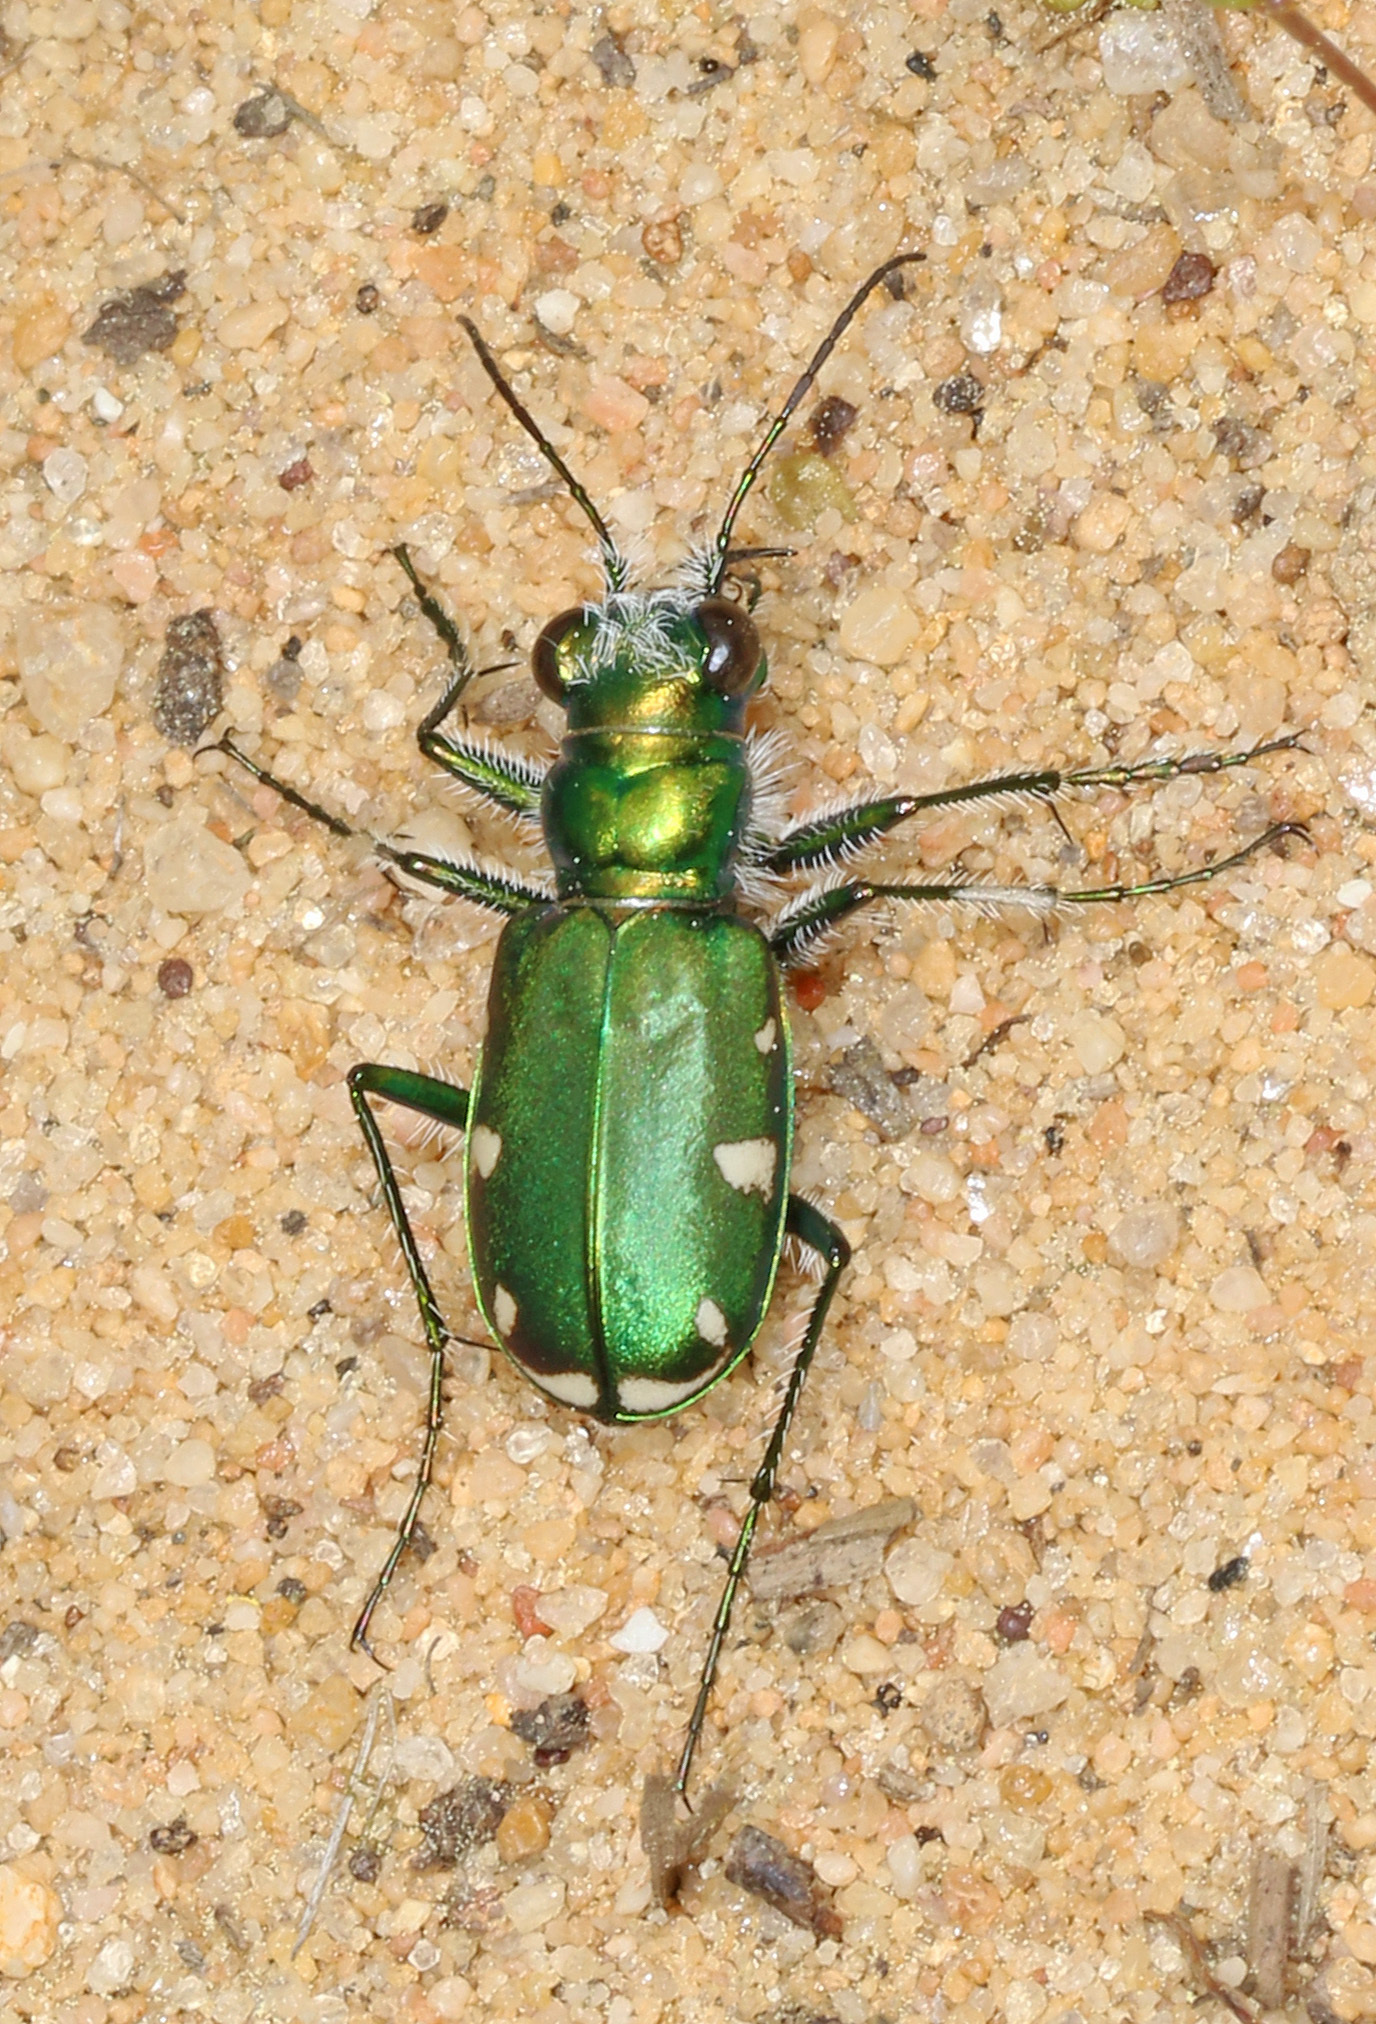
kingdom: Animalia
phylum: Arthropoda
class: Insecta
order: Coleoptera
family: Carabidae
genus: Cicindela
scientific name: Cicindela scutellaris
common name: Festive tiger beetle
